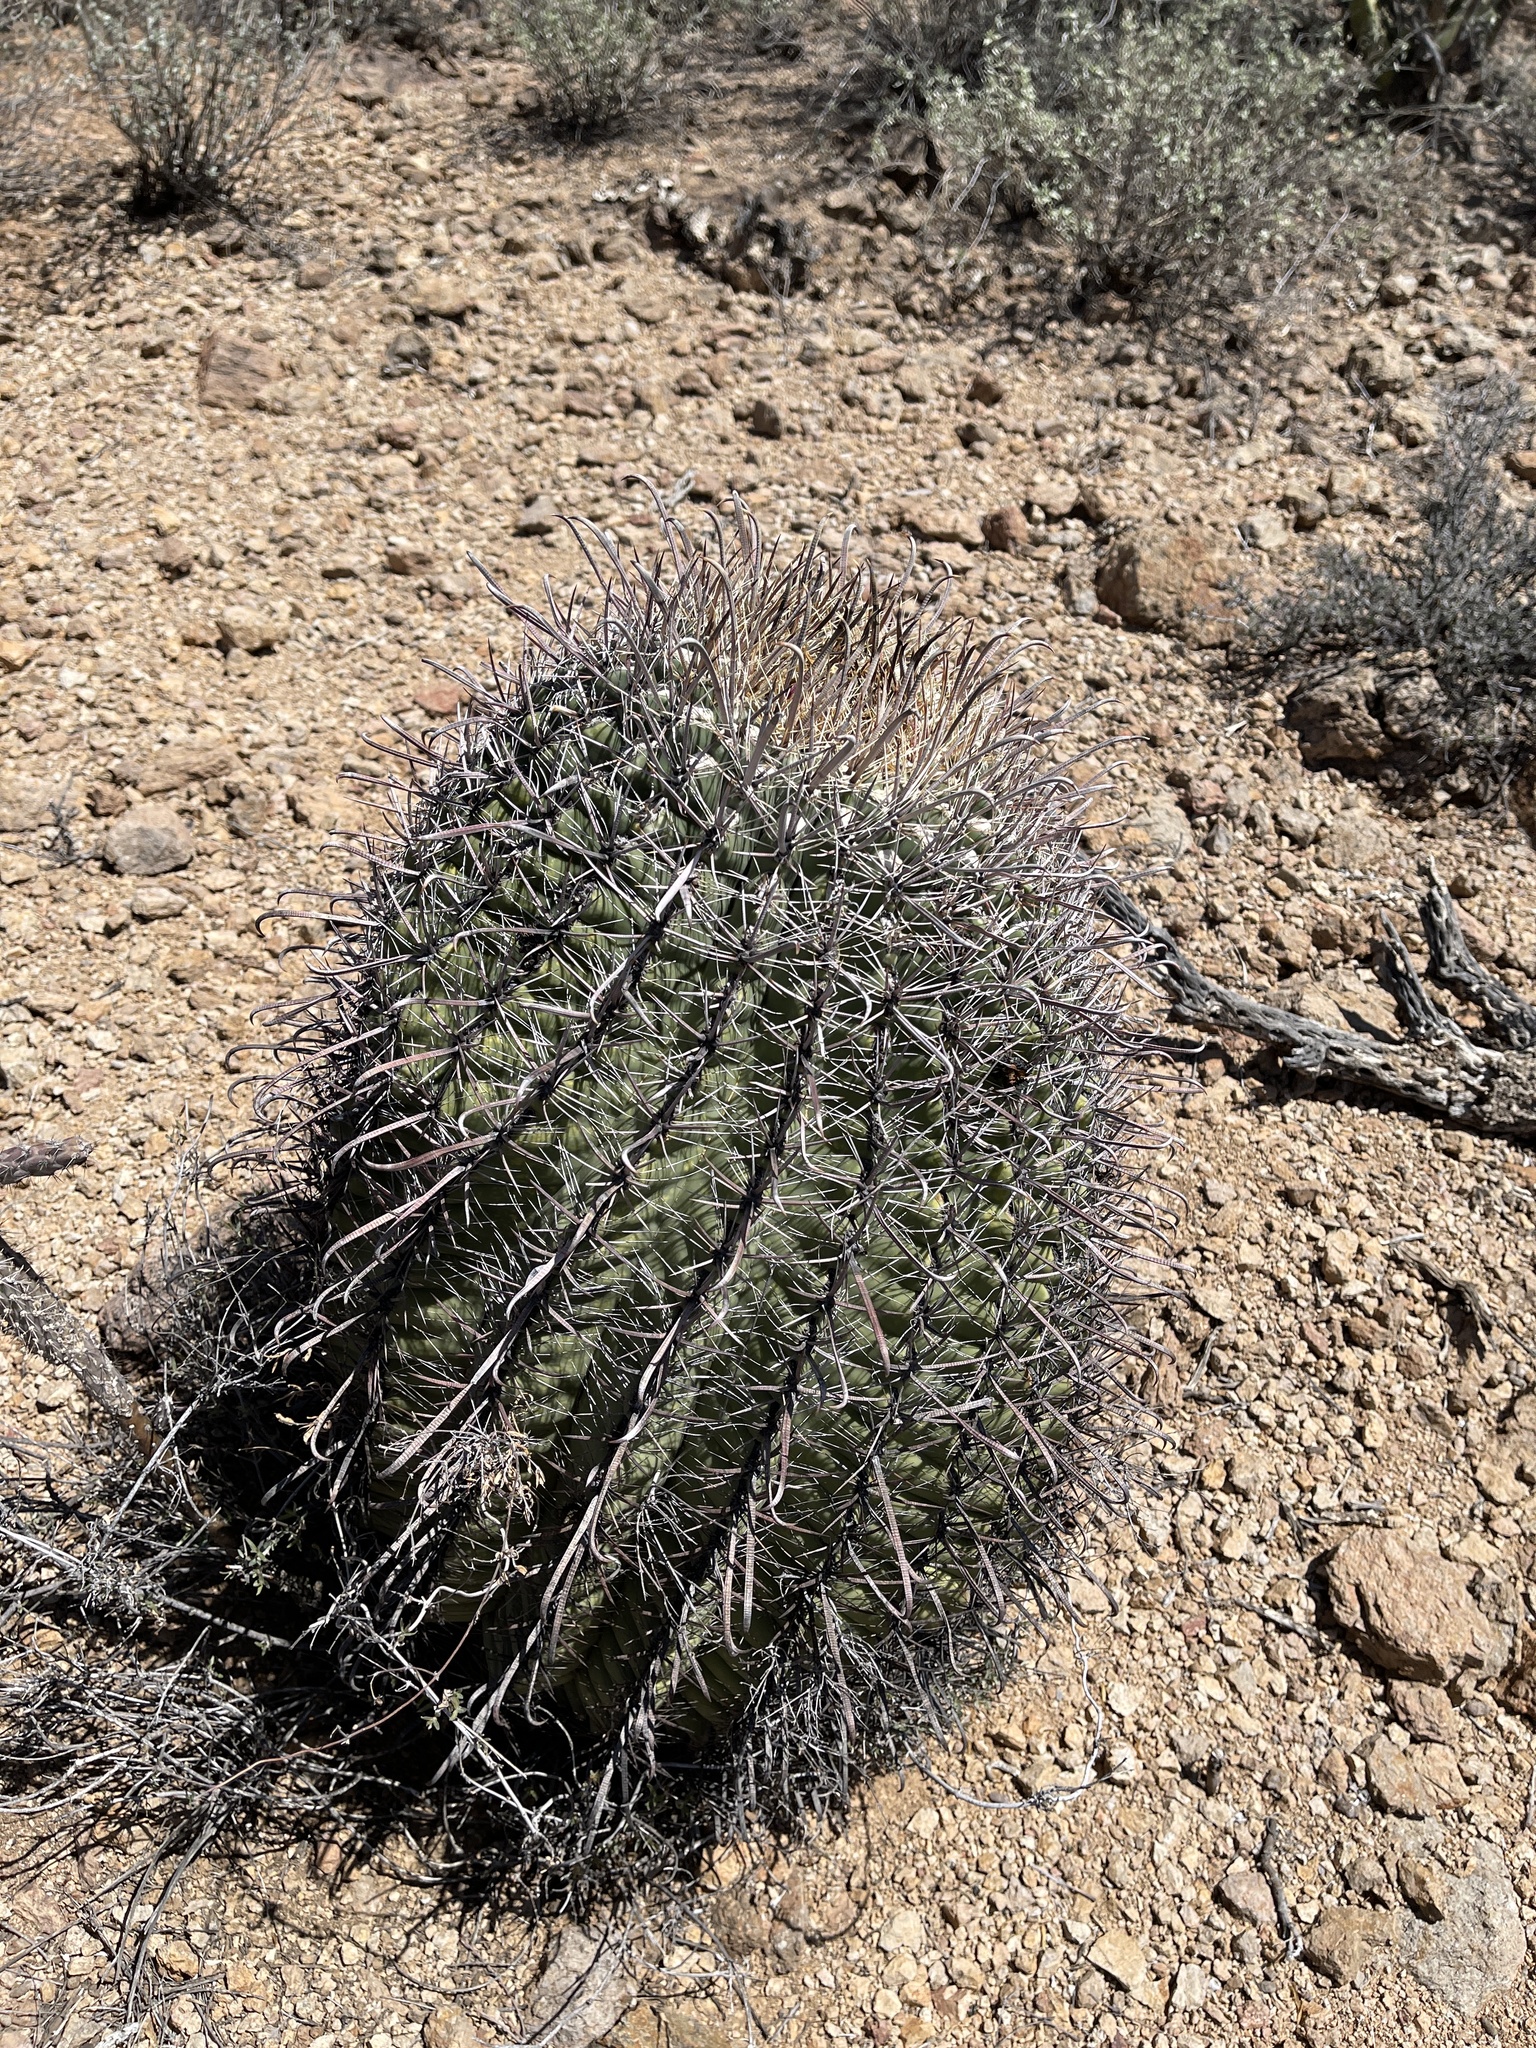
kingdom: Plantae
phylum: Tracheophyta
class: Magnoliopsida
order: Caryophyllales
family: Cactaceae
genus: Ferocactus
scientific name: Ferocactus wislizeni
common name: Candy barrel cactus
